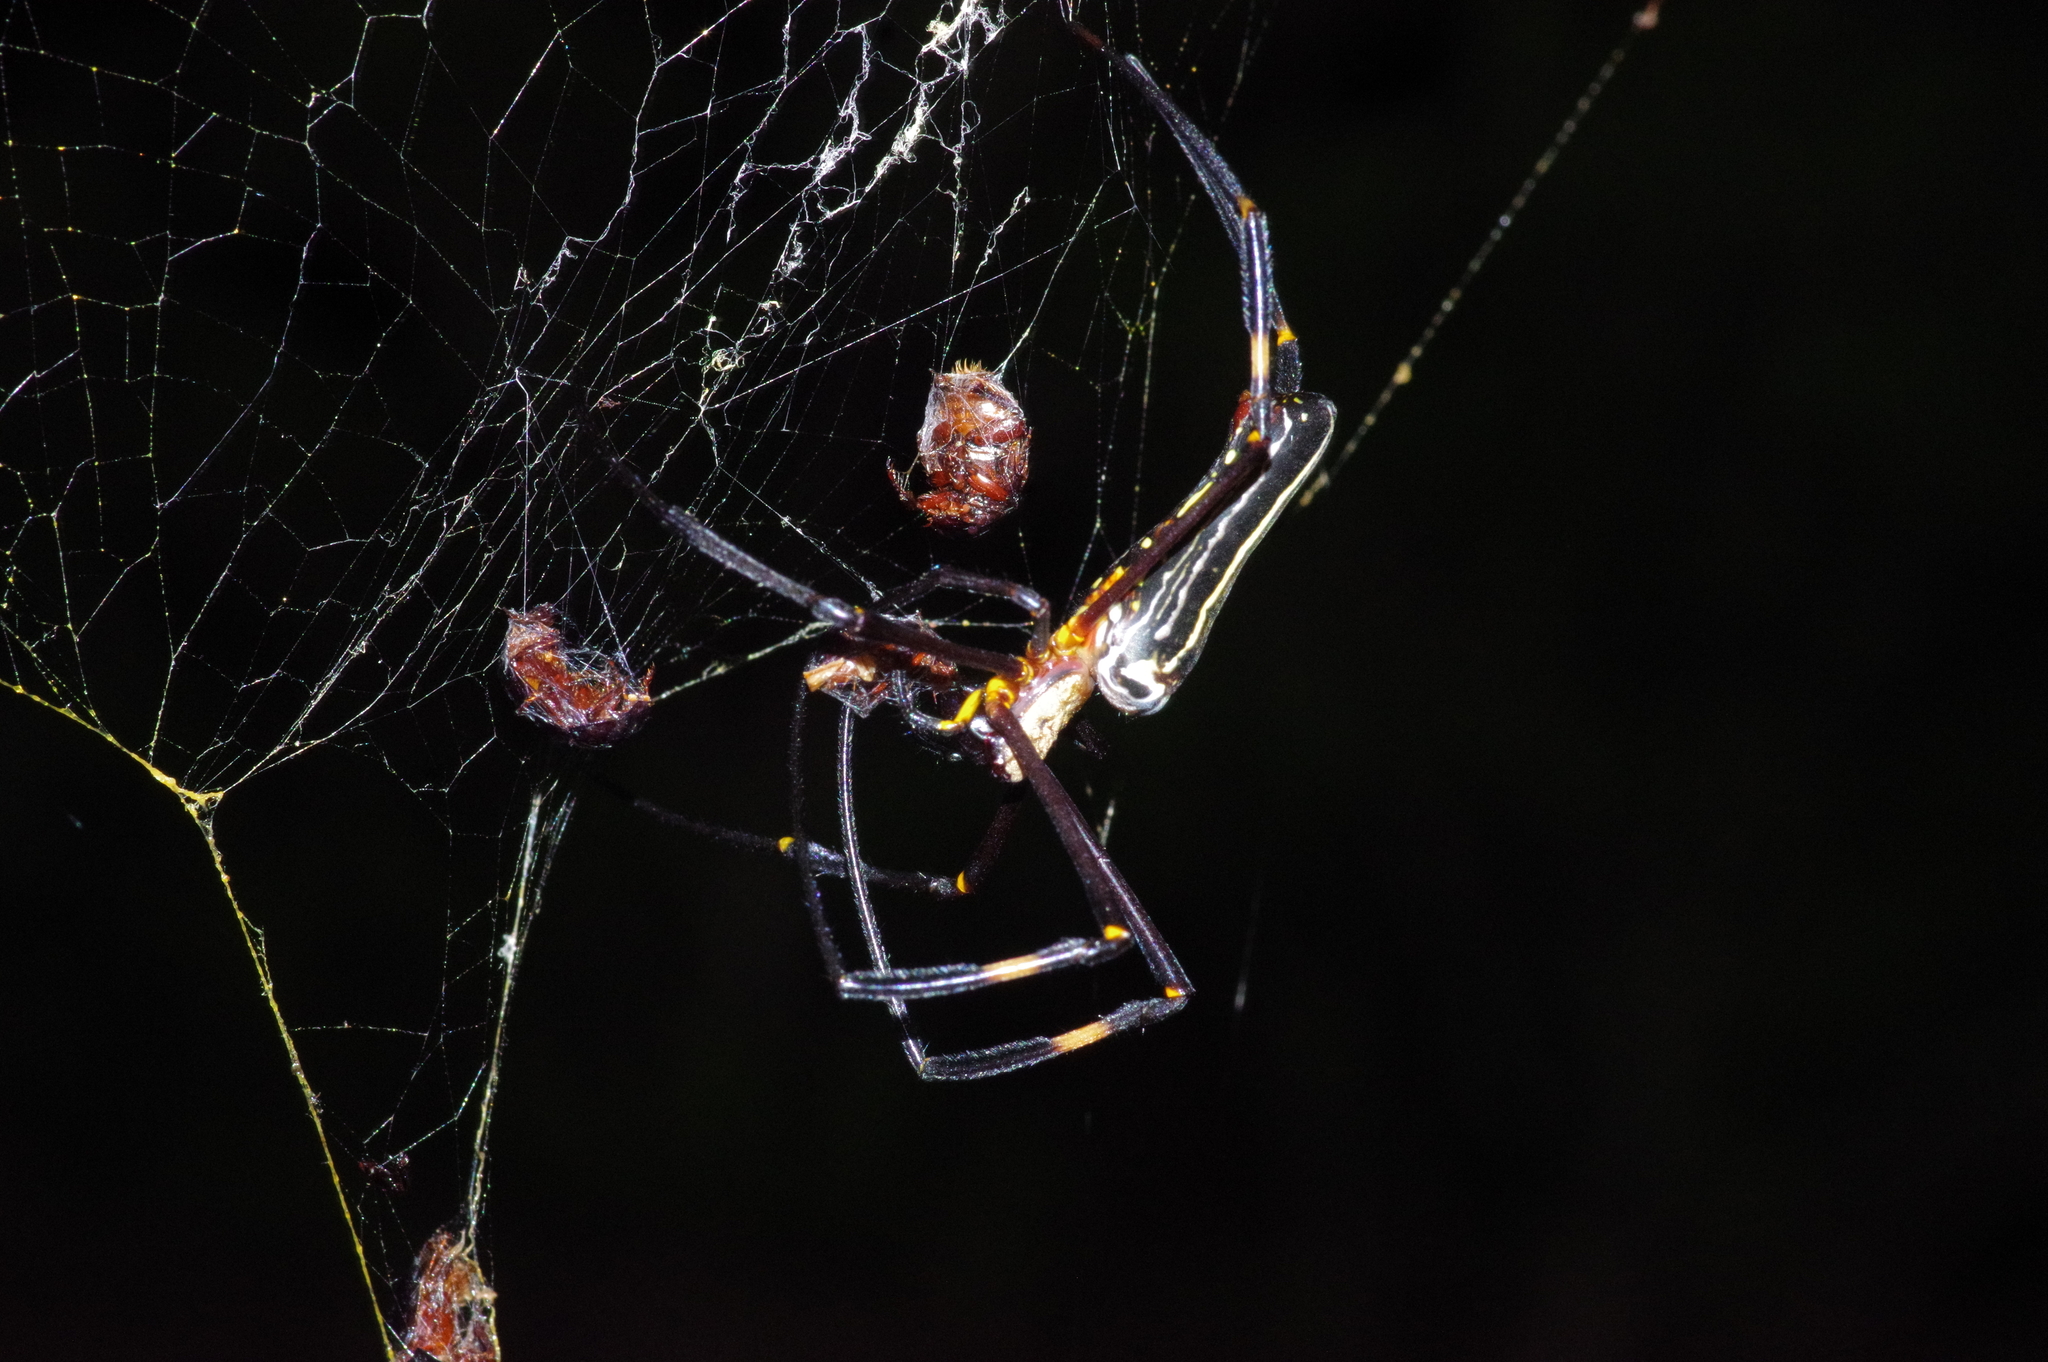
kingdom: Animalia
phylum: Arthropoda
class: Arachnida
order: Araneae
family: Araneidae
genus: Nephila
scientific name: Nephila pilipes
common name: Giant golden orb weaver
